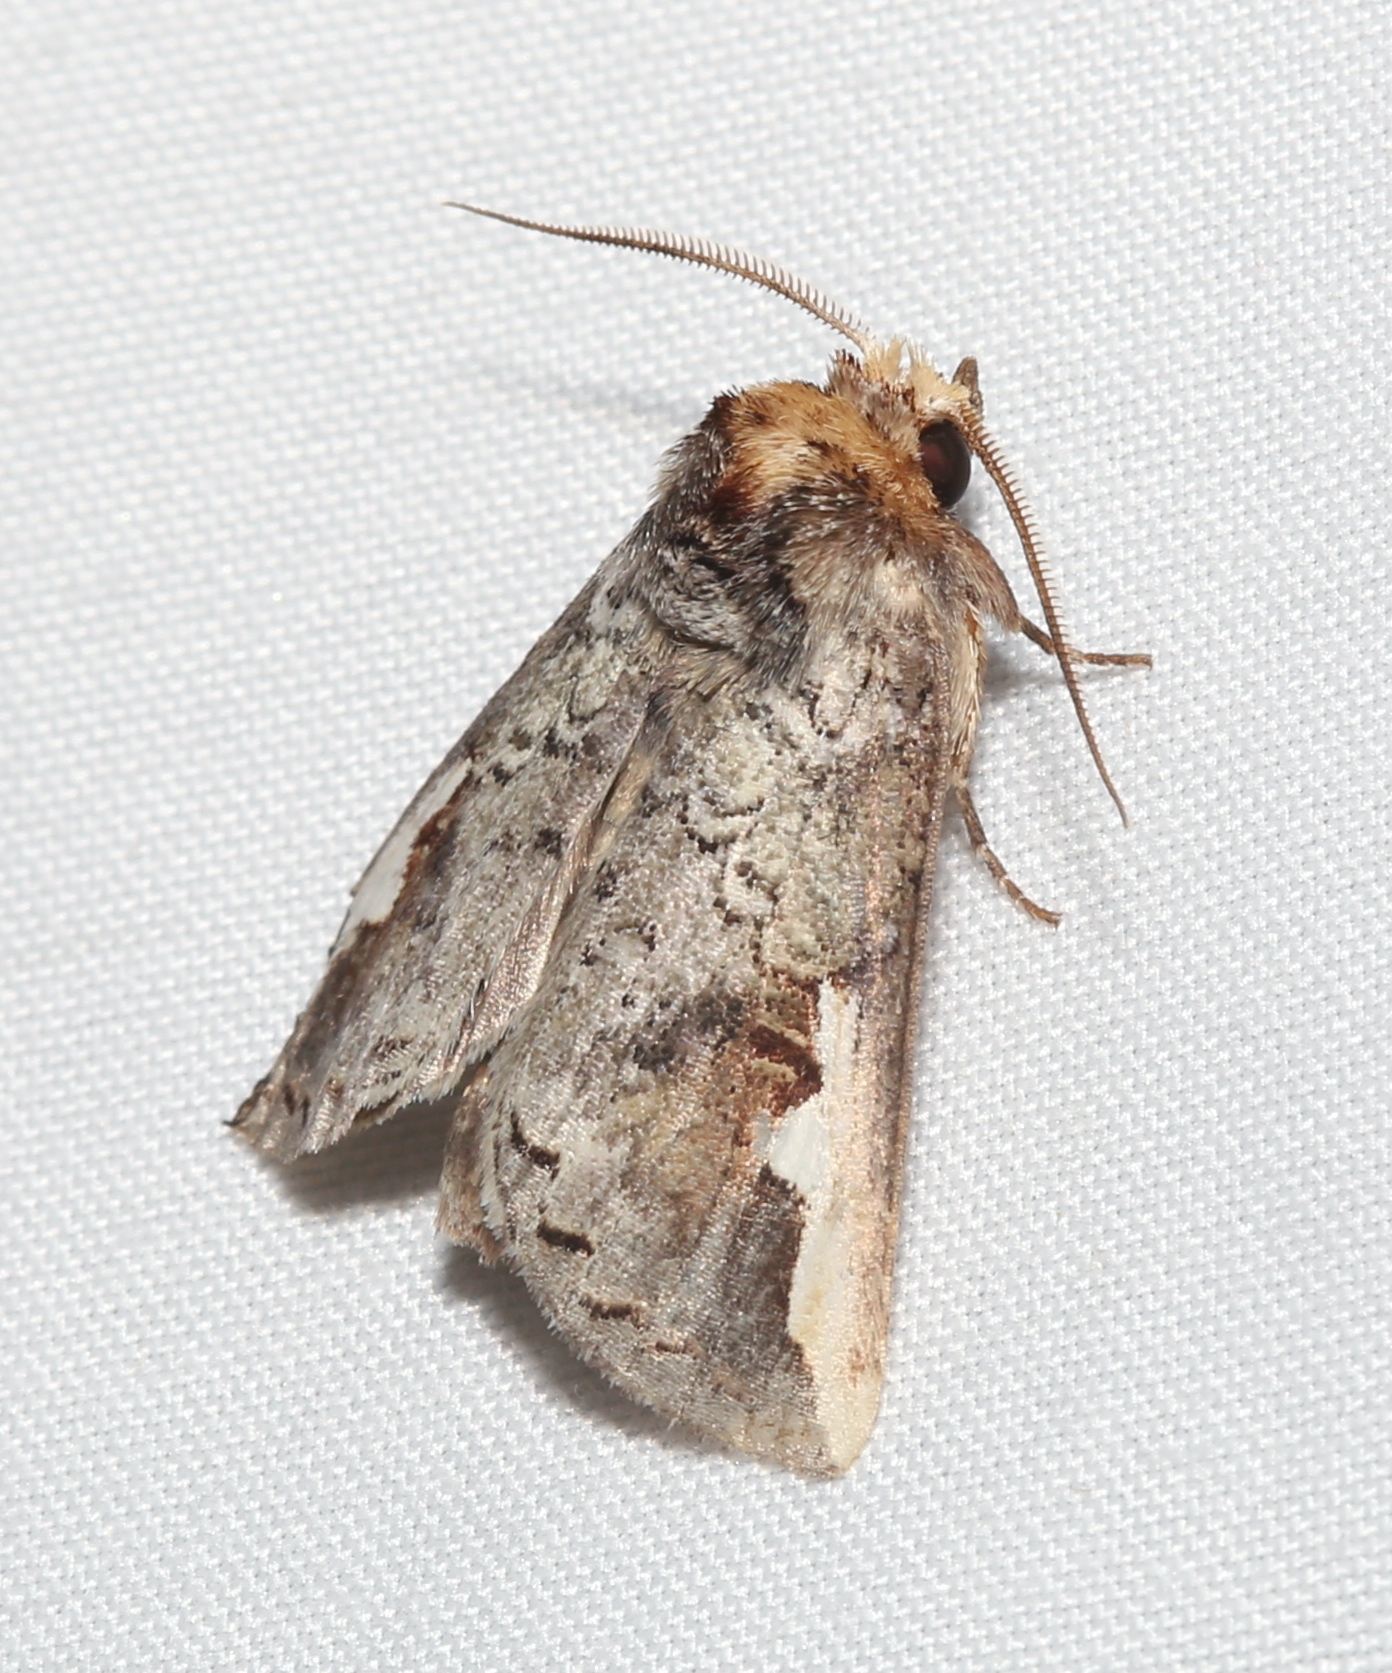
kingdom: Animalia
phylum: Arthropoda
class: Insecta
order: Lepidoptera
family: Notodontidae
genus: Symmerista
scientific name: Symmerista albifrons
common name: White-headed prominent
